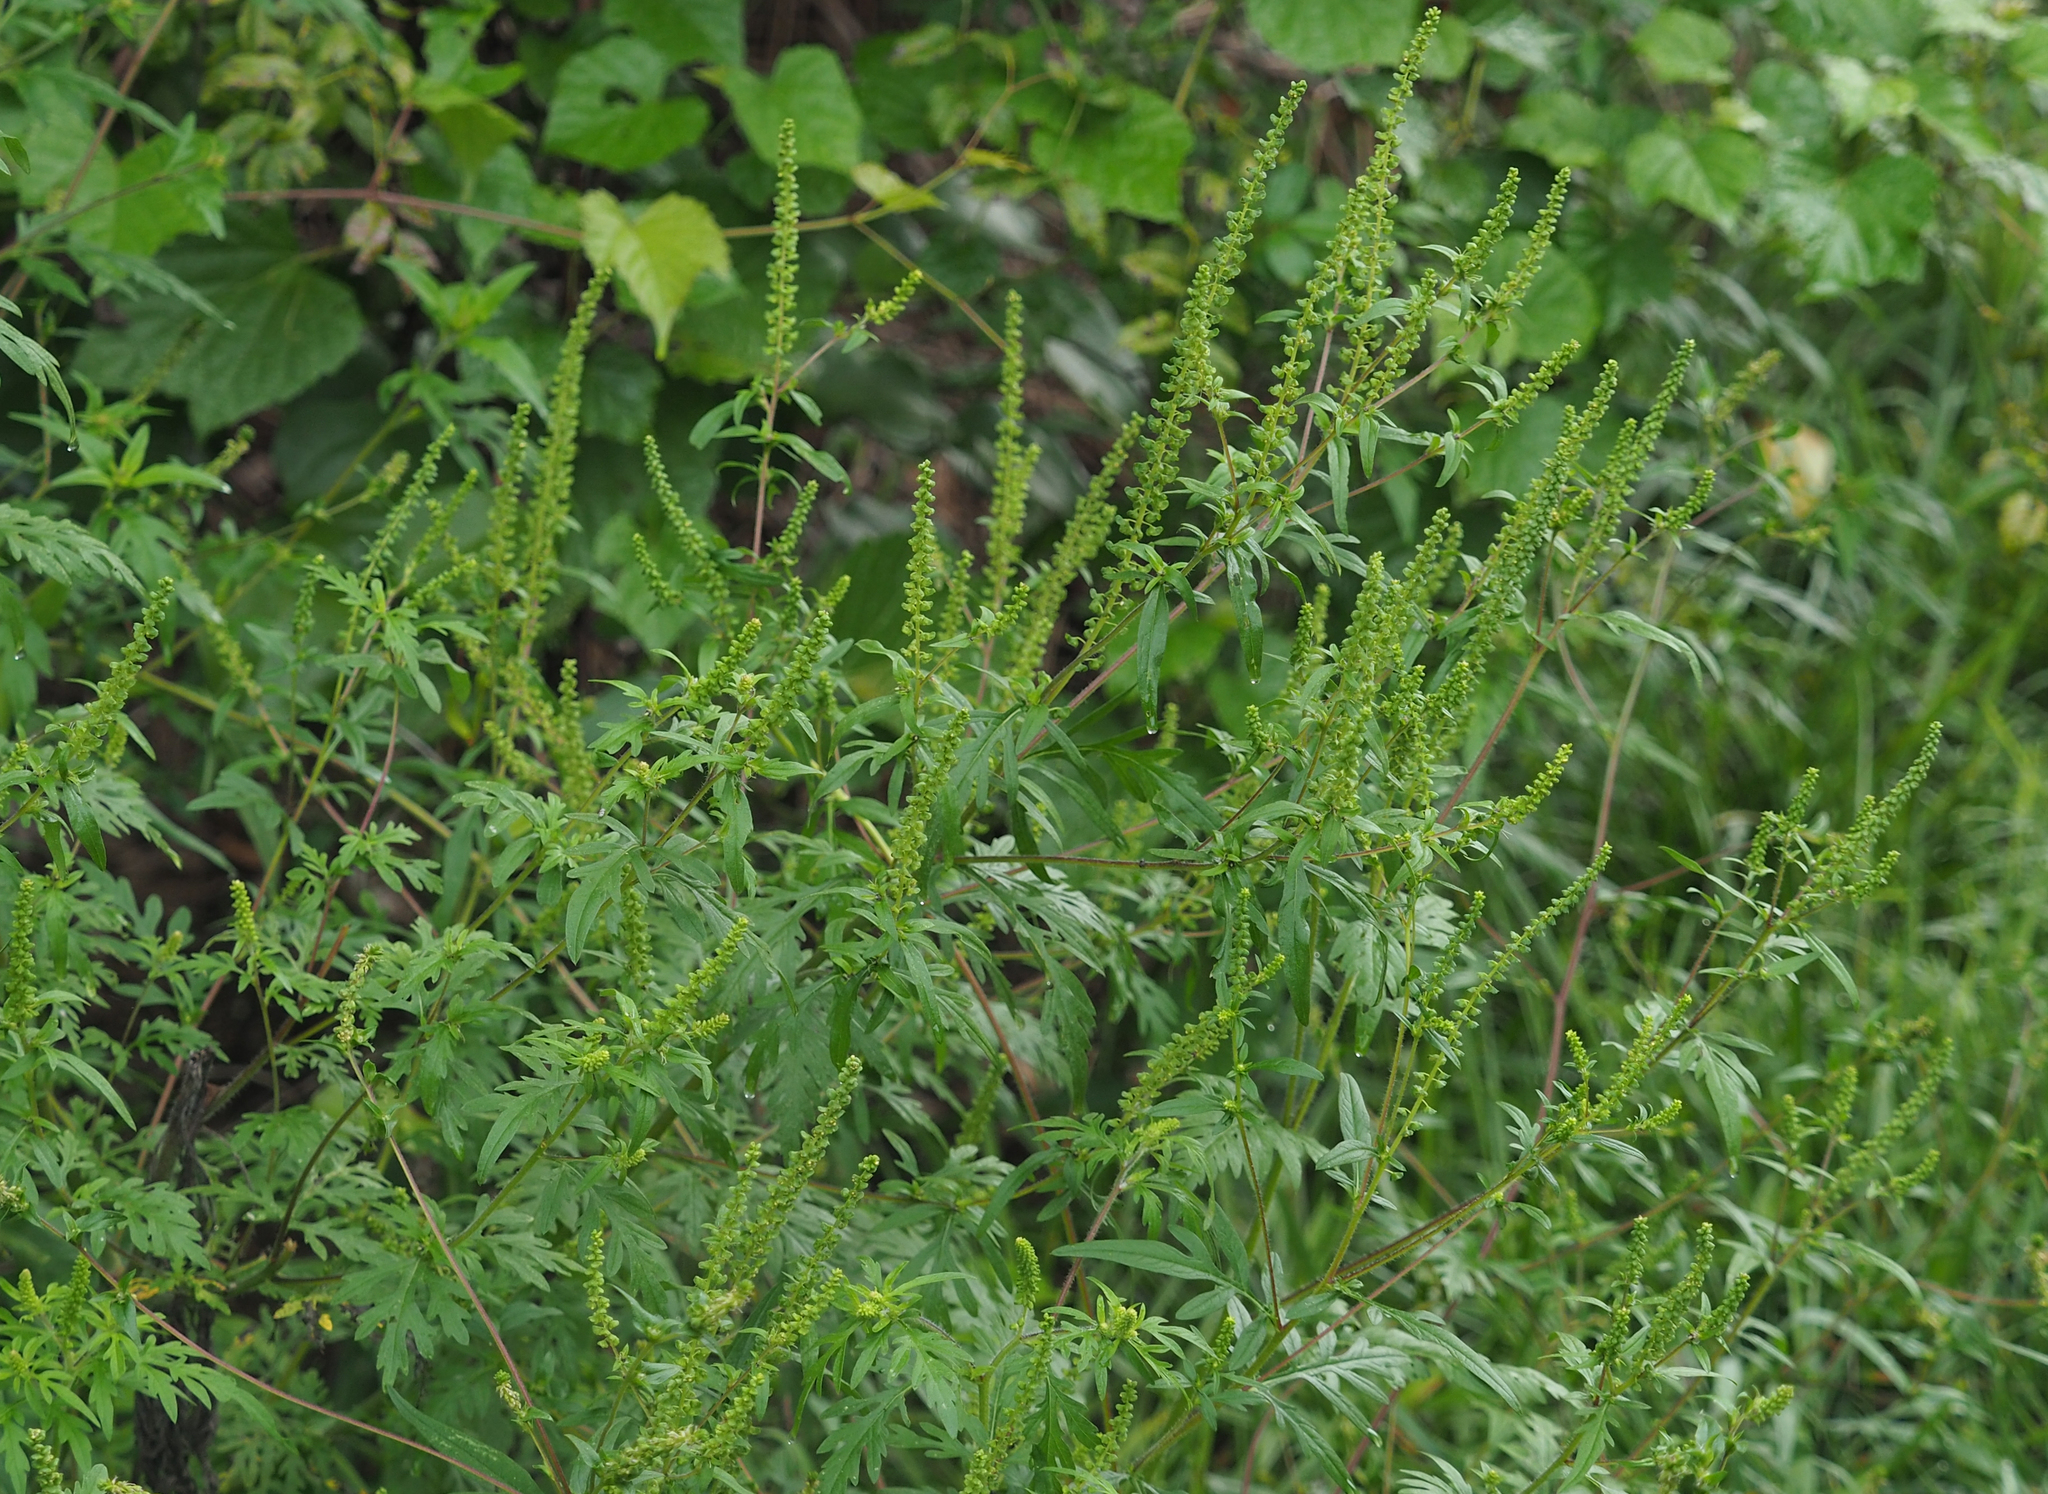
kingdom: Plantae
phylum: Tracheophyta
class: Magnoliopsida
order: Asterales
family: Asteraceae
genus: Ambrosia
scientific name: Ambrosia artemisiifolia
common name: Annual ragweed
